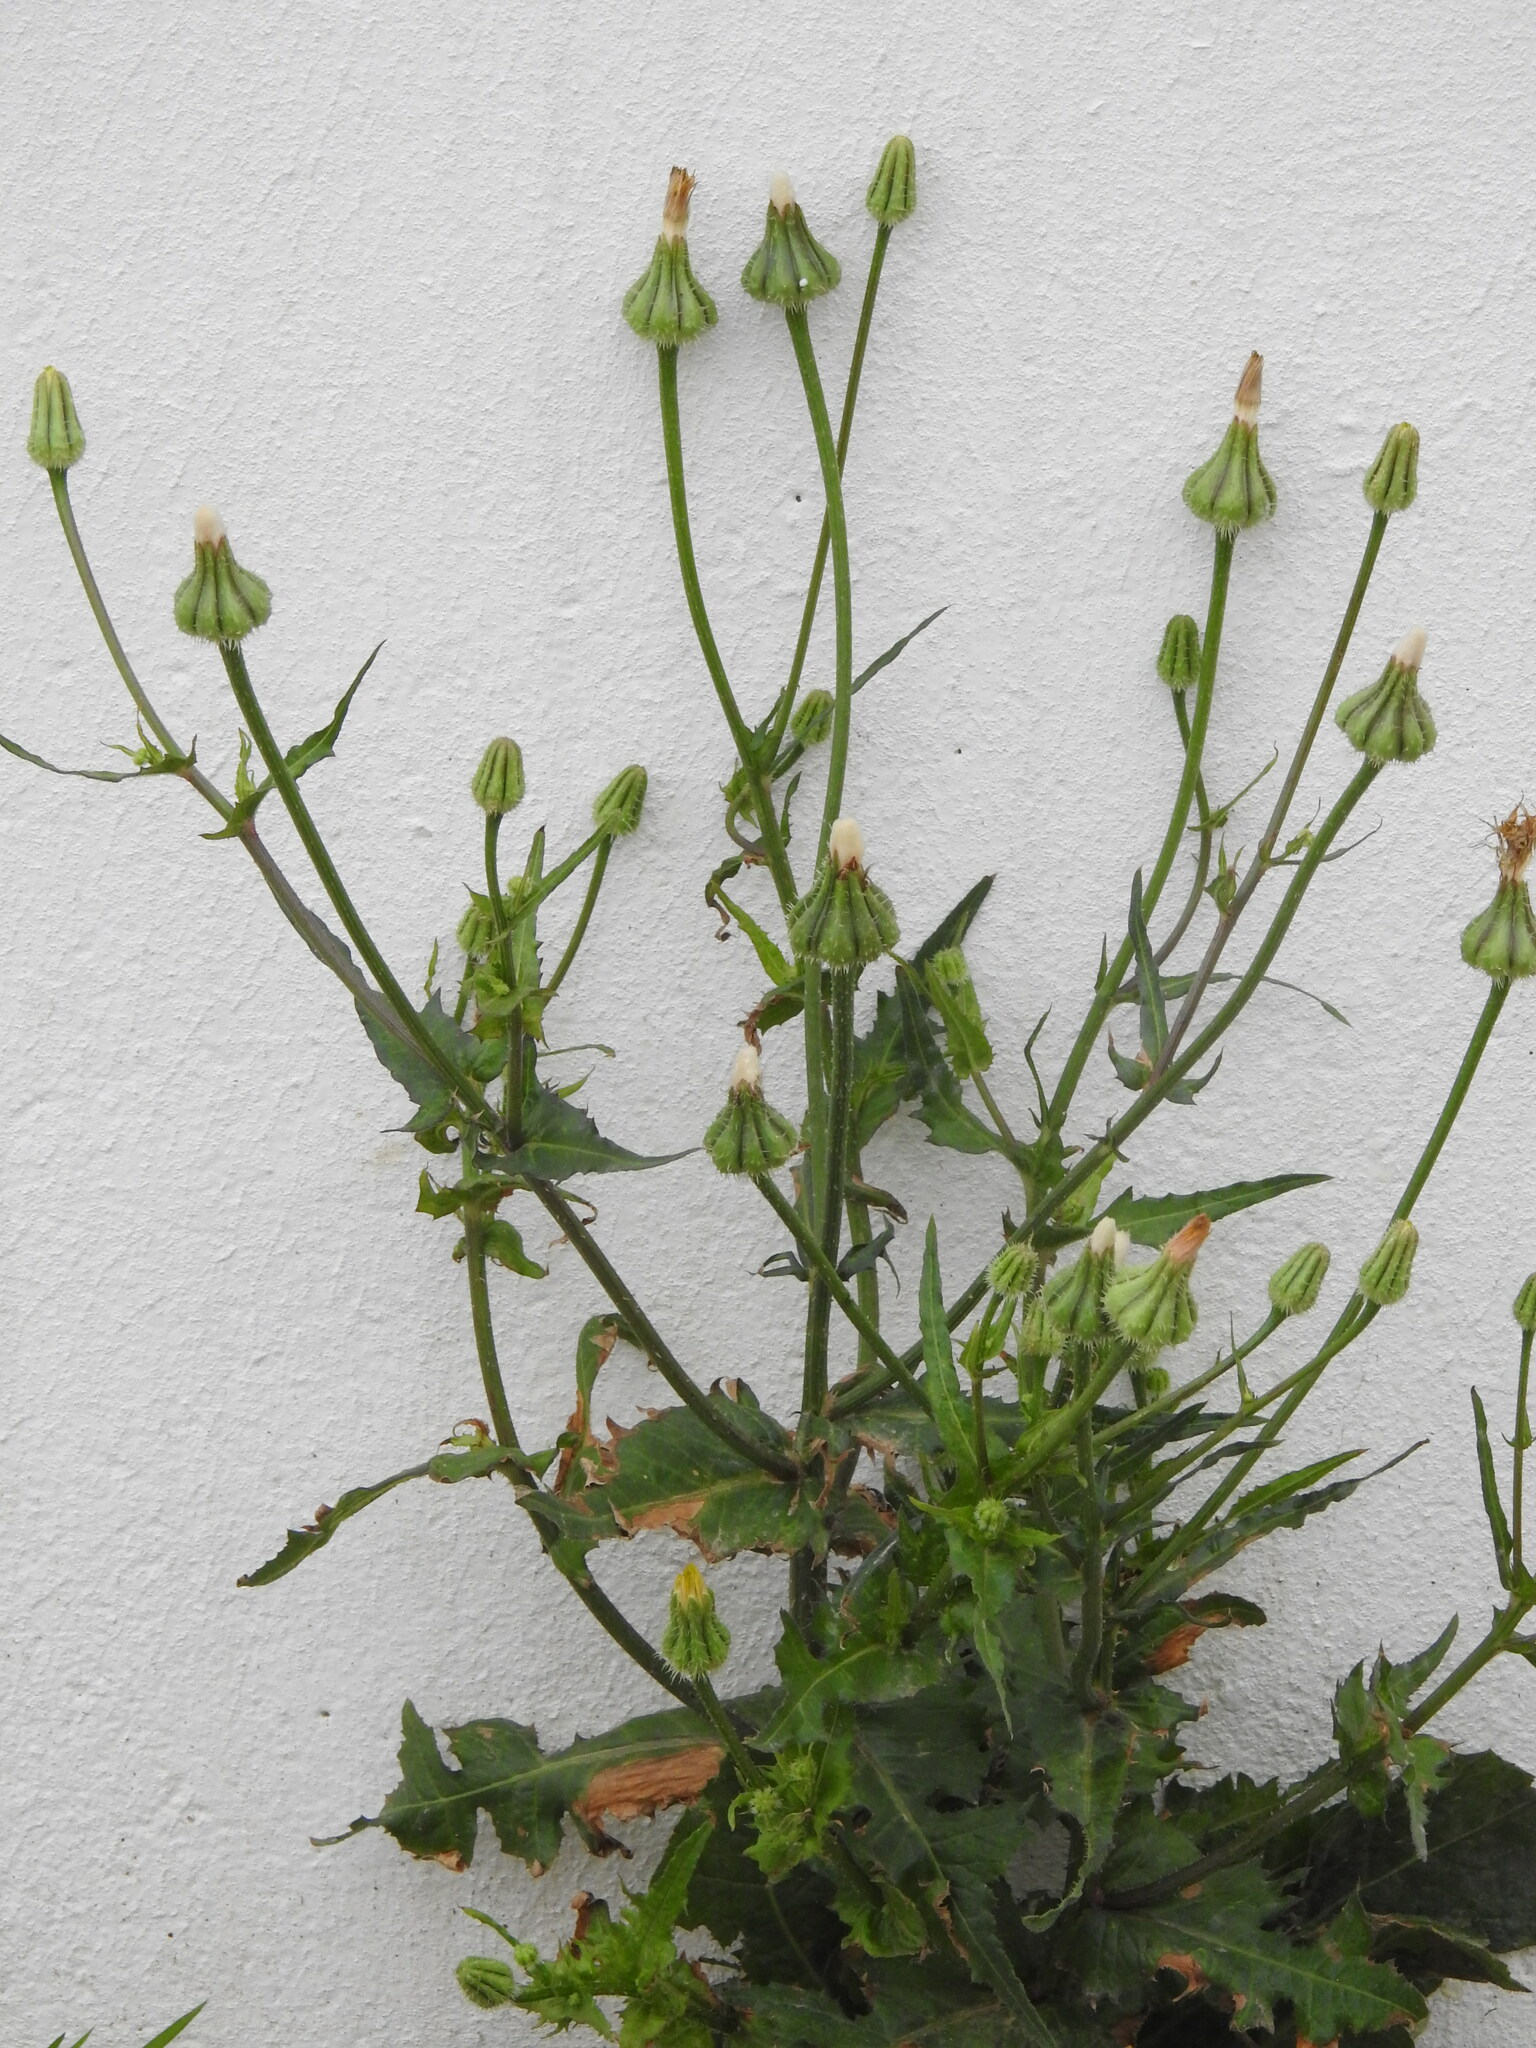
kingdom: Plantae
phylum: Tracheophyta
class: Magnoliopsida
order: Asterales
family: Asteraceae
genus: Urospermum
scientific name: Urospermum picroides
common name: False hawkbit
